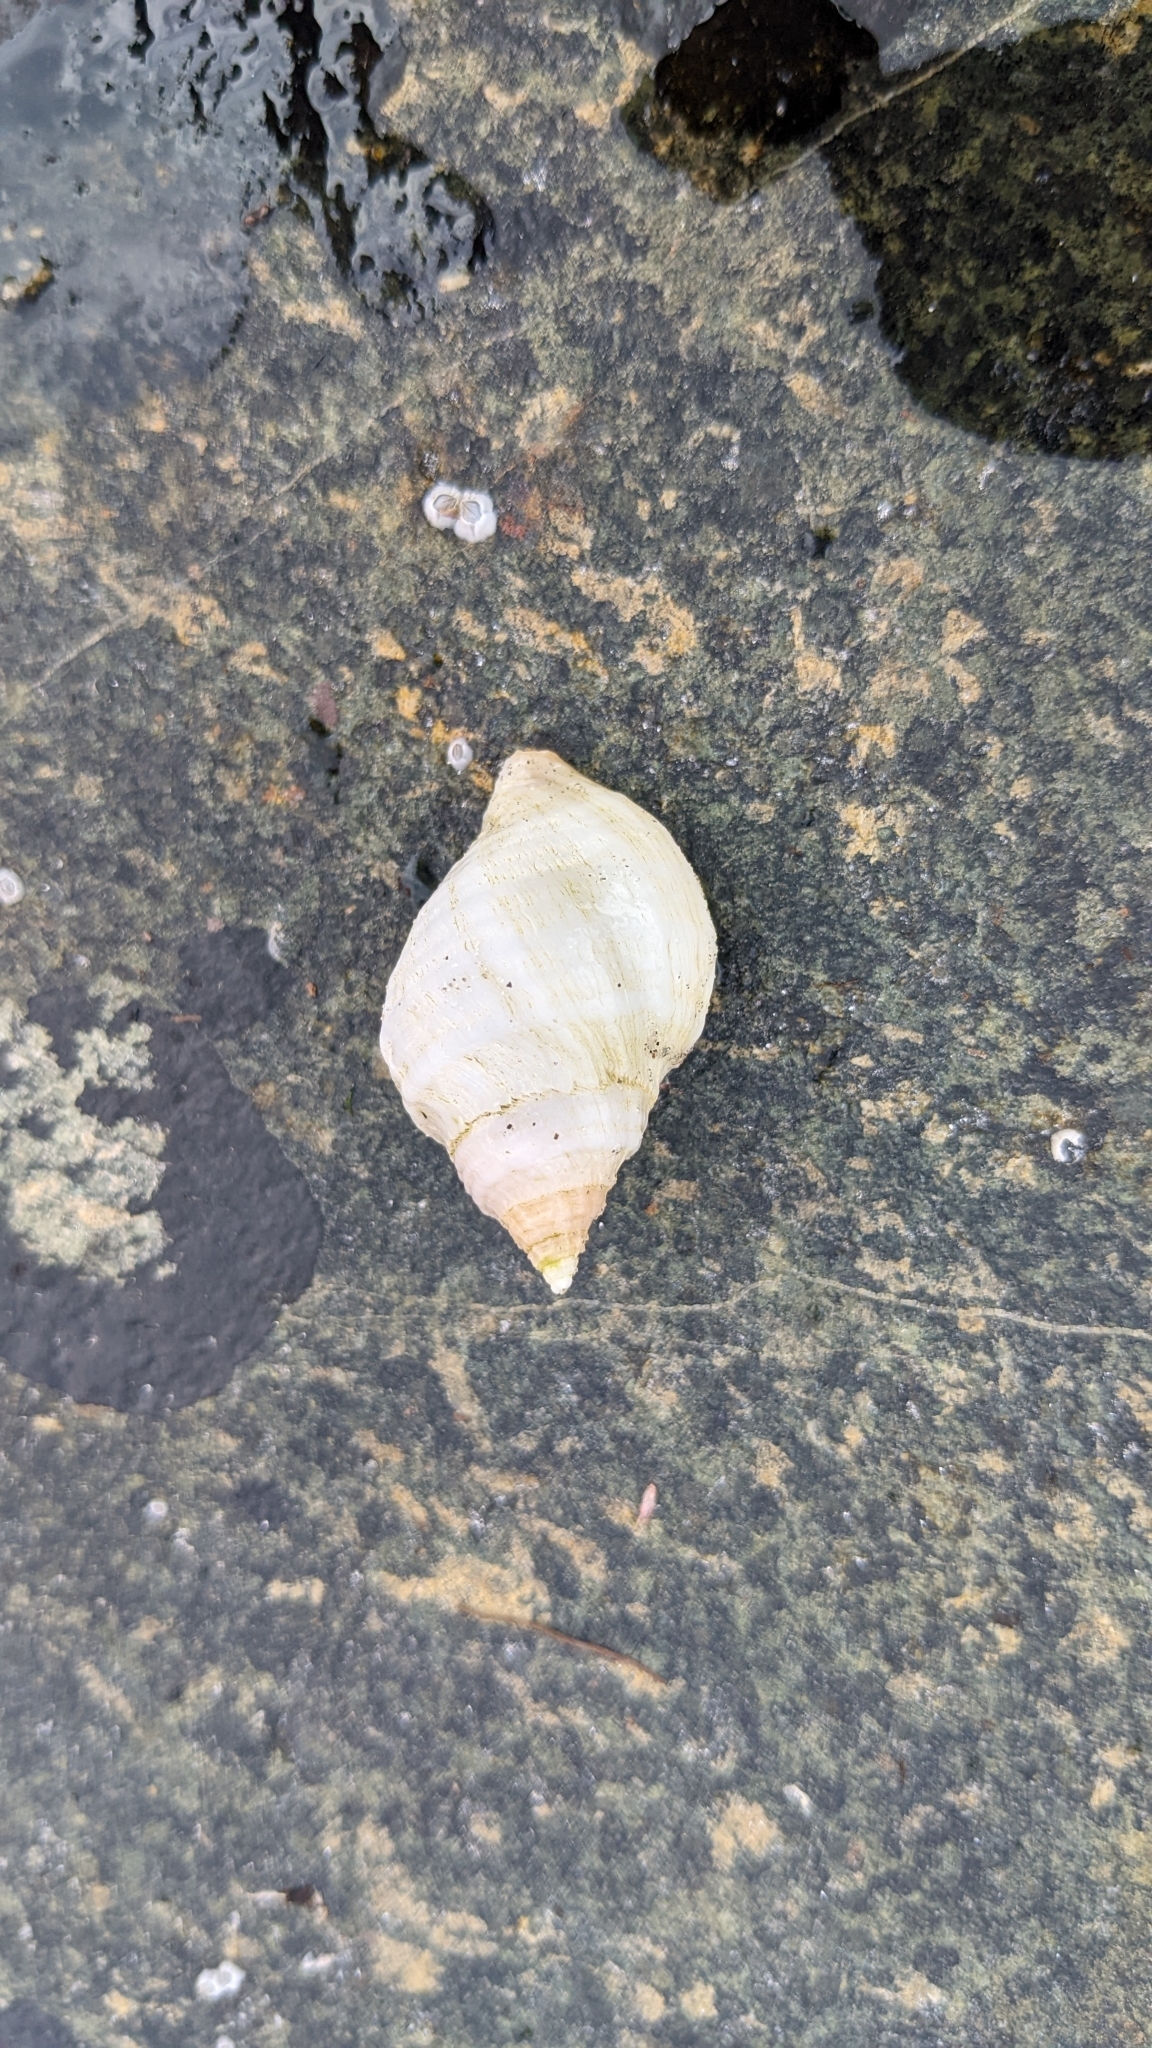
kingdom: Animalia
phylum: Mollusca
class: Gastropoda
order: Neogastropoda
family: Muricidae
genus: Nucella
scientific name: Nucella lapillus
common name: Dog whelk
